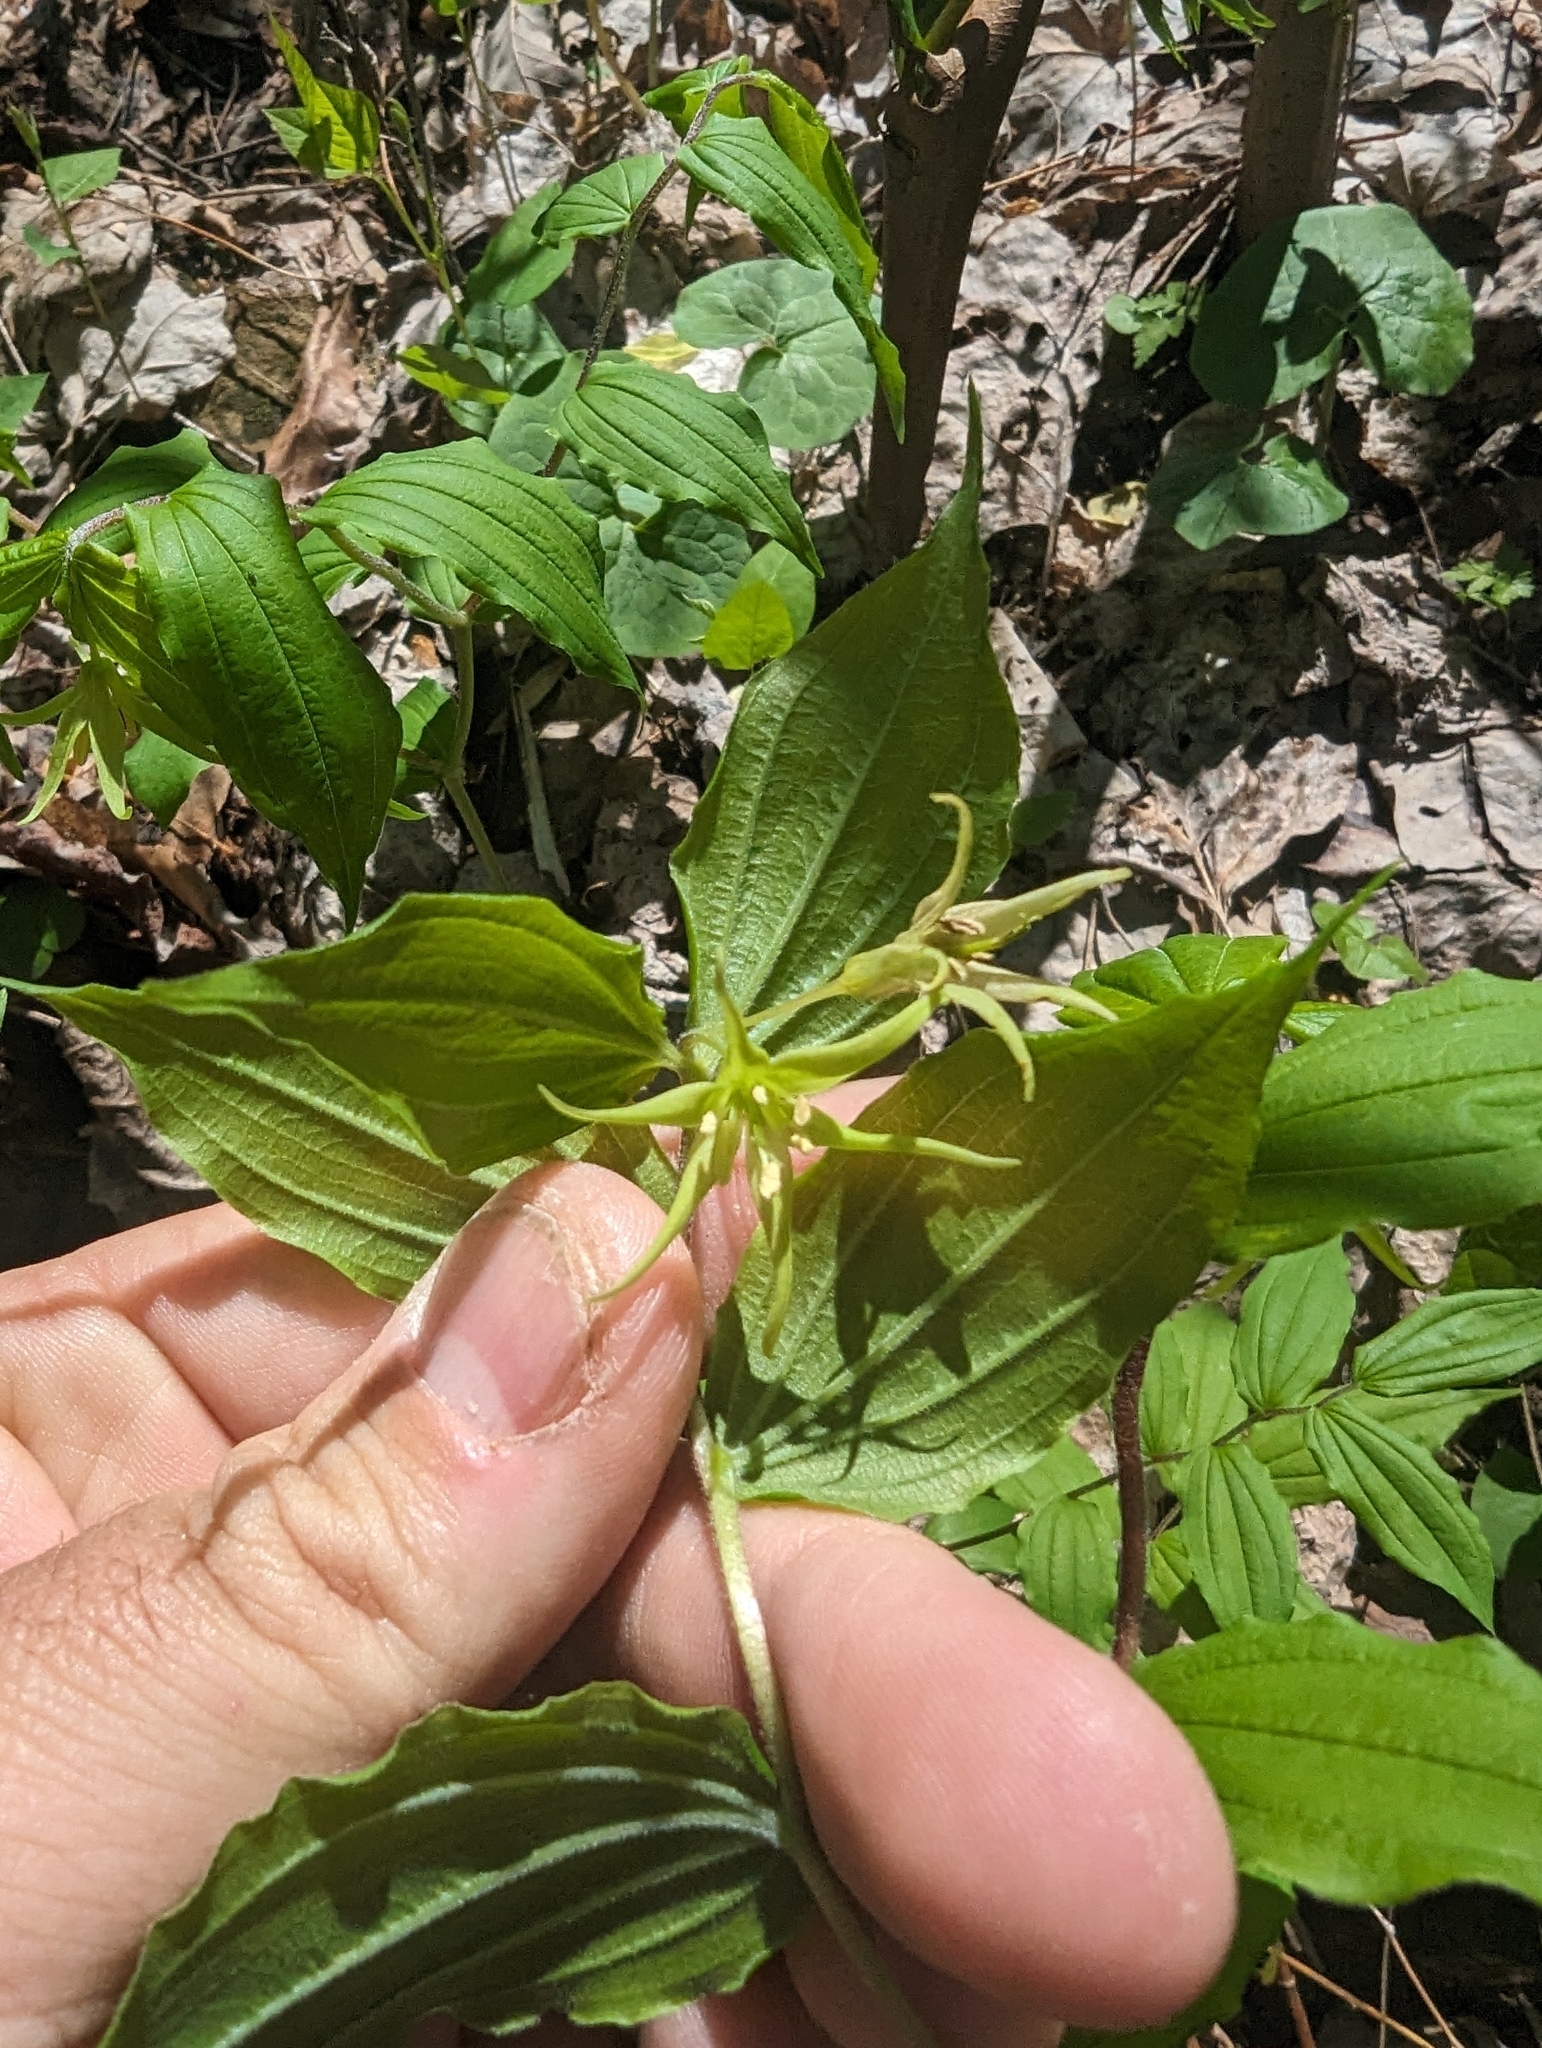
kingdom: Plantae
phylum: Tracheophyta
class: Liliopsida
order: Liliales
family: Liliaceae
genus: Prosartes
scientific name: Prosartes lanuginosa
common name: Hairy mandarin
